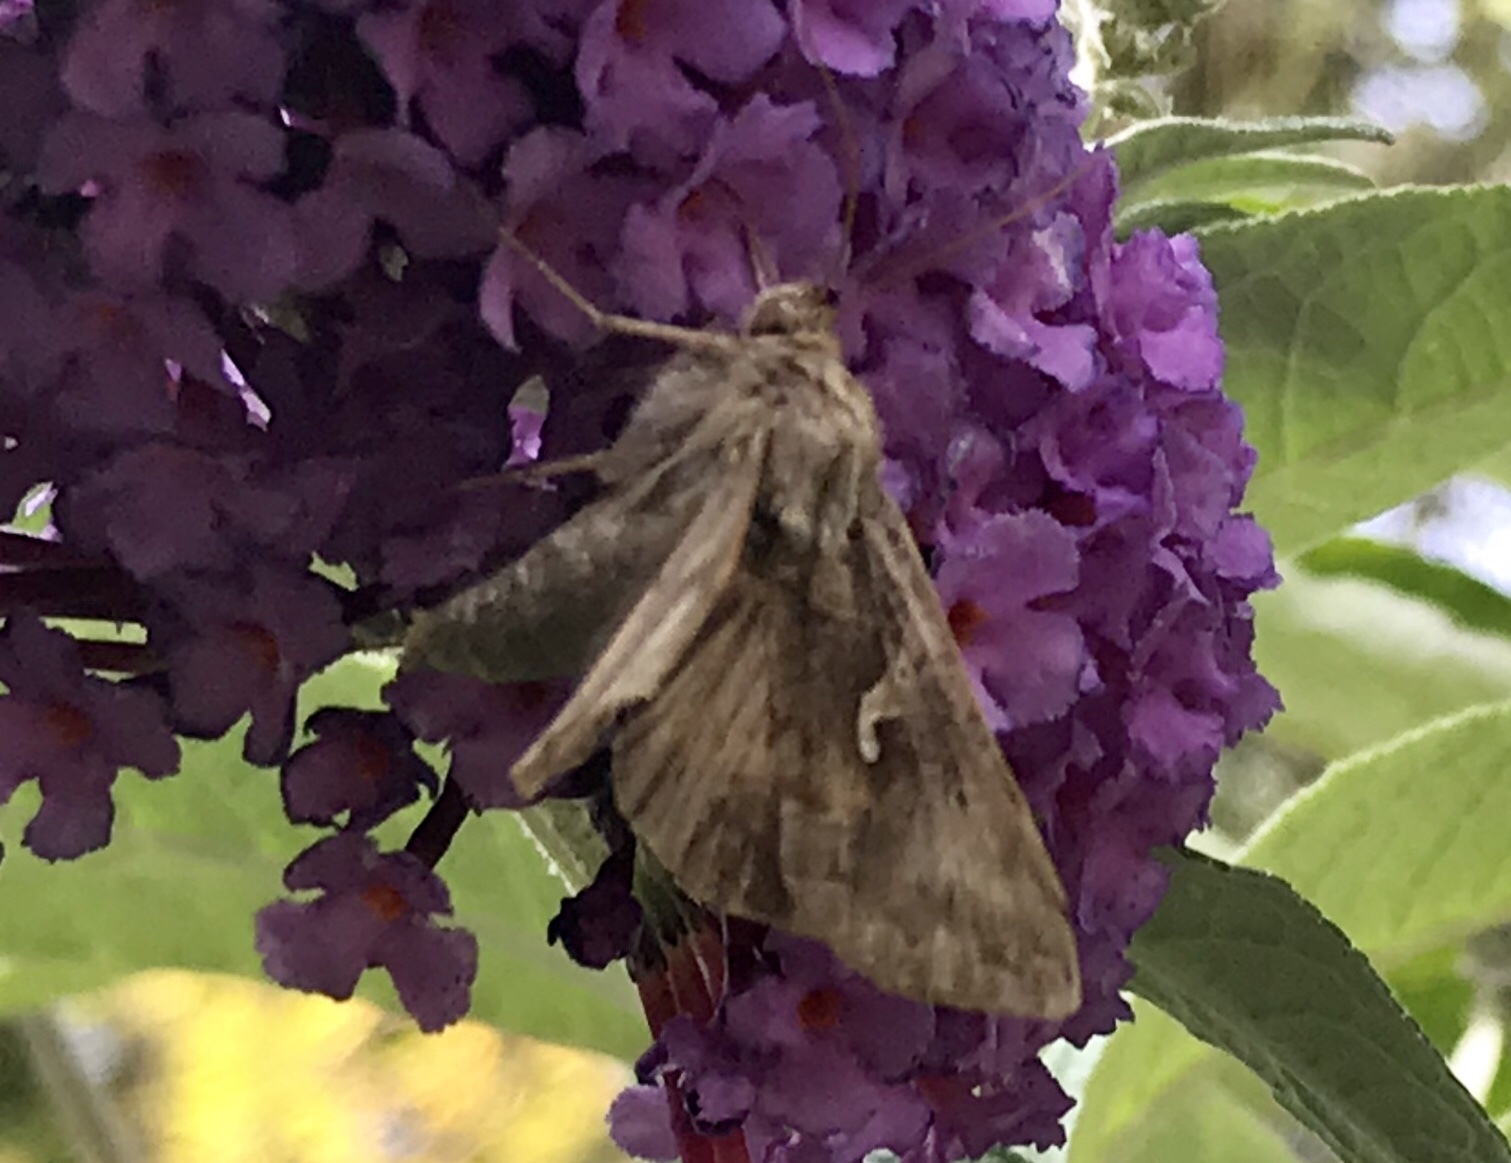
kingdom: Animalia
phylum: Arthropoda
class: Insecta
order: Lepidoptera
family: Noctuidae
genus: Autographa
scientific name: Autographa gamma
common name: Silver y
